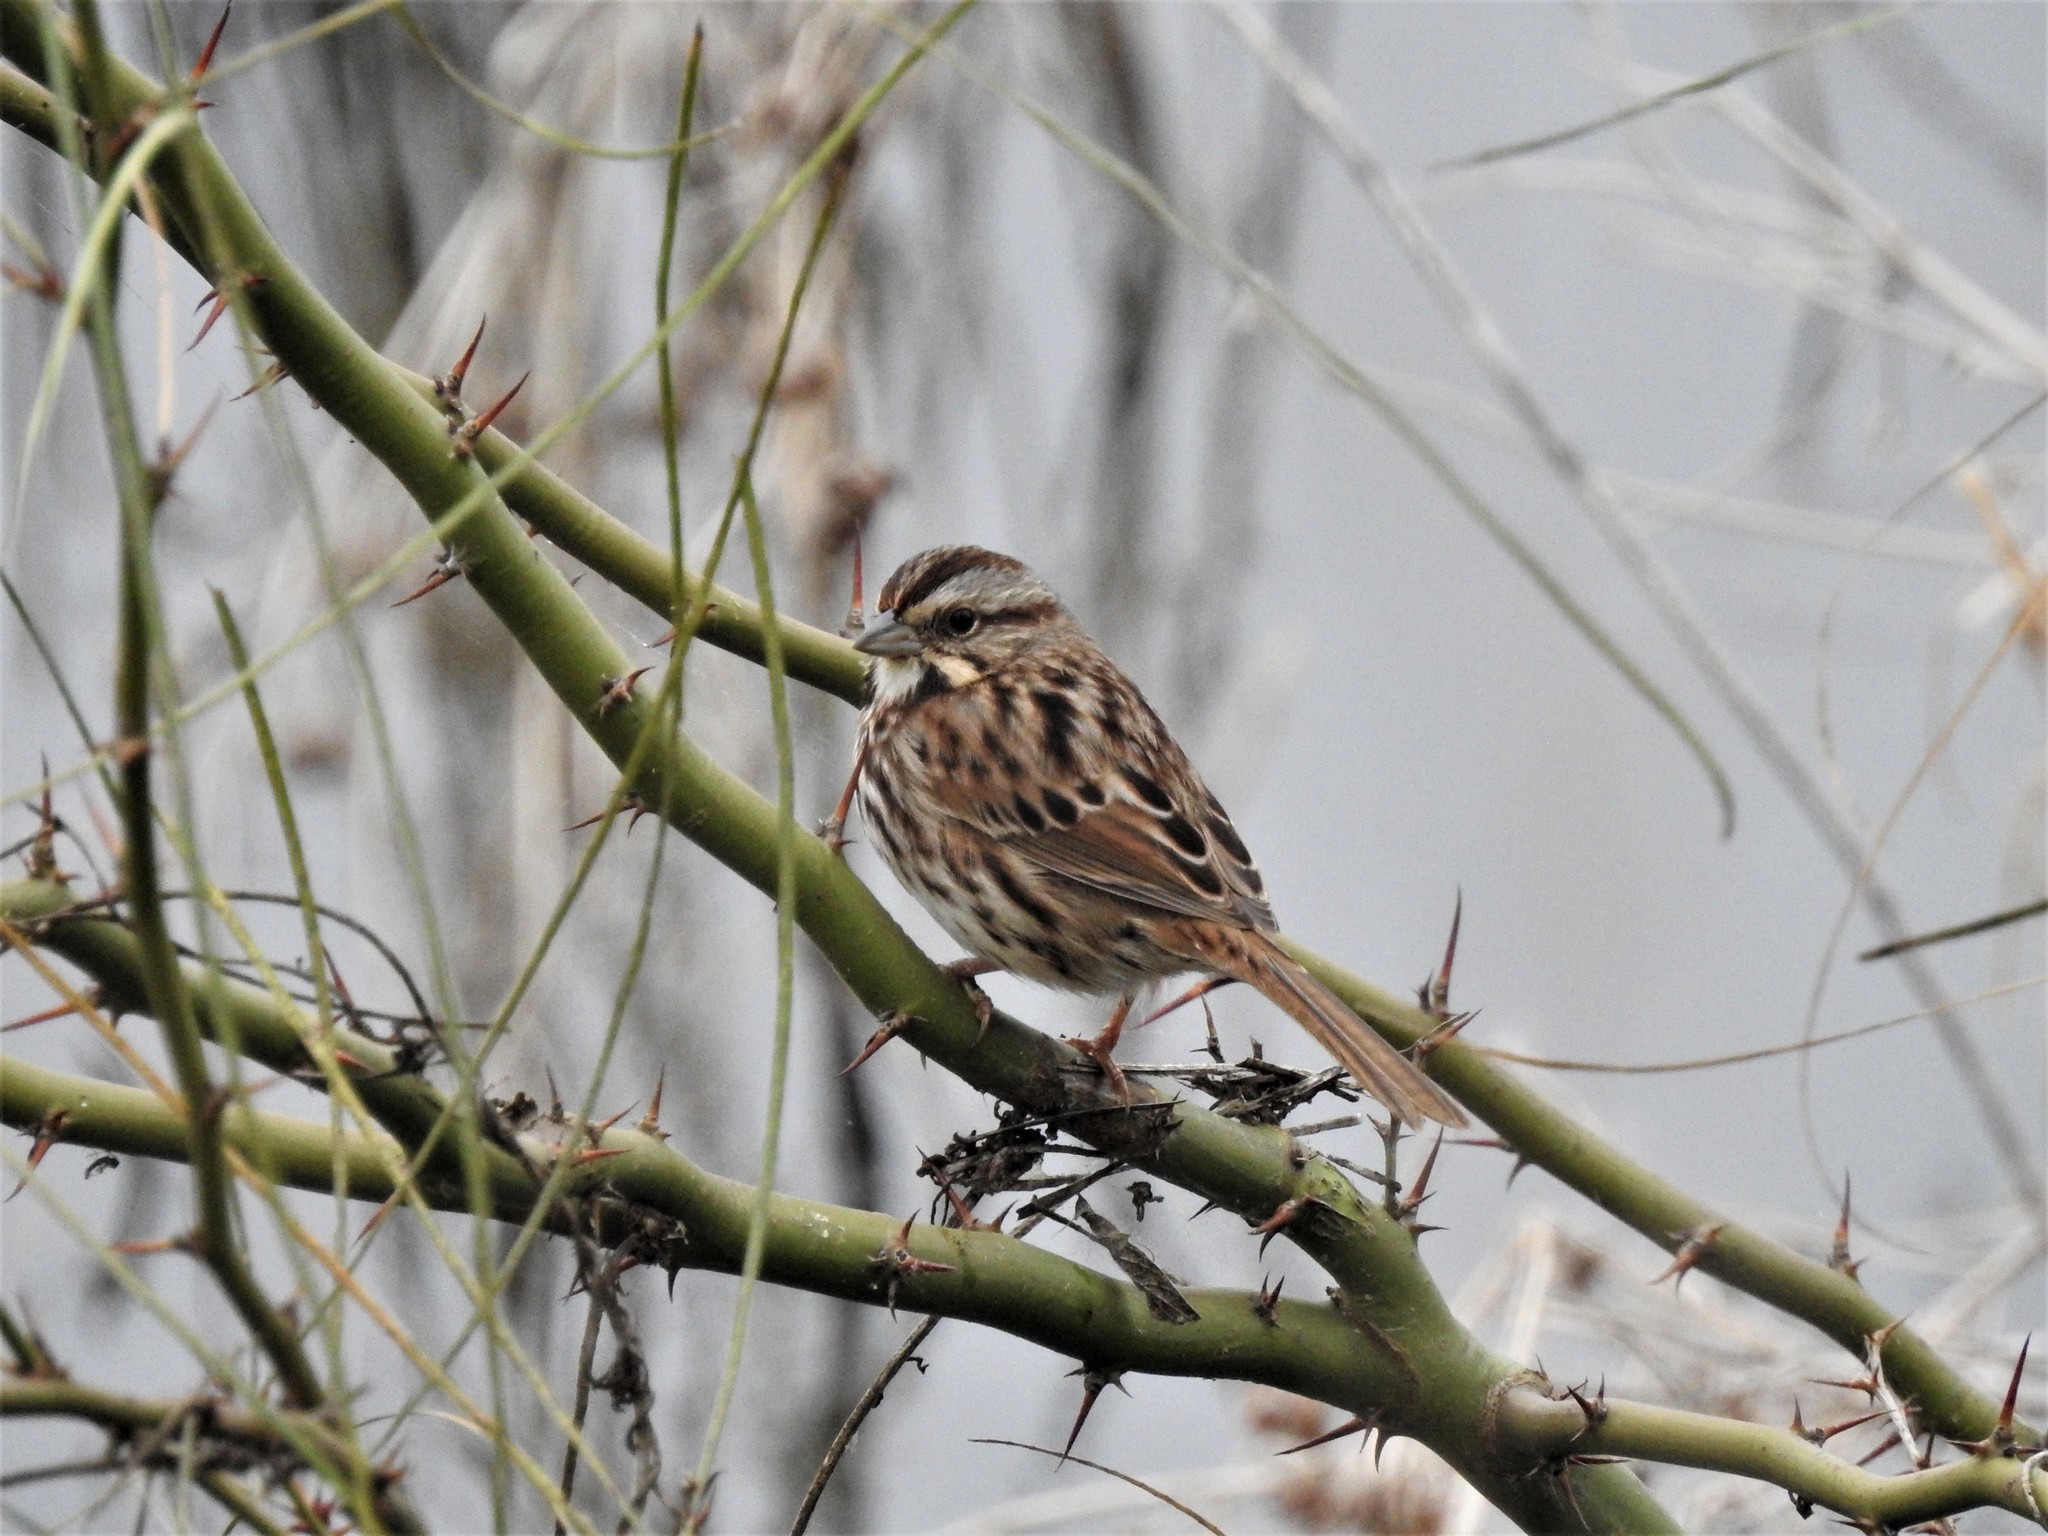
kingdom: Animalia
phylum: Chordata
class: Aves
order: Passeriformes
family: Passerellidae
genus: Melospiza
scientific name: Melospiza melodia
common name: Song sparrow
